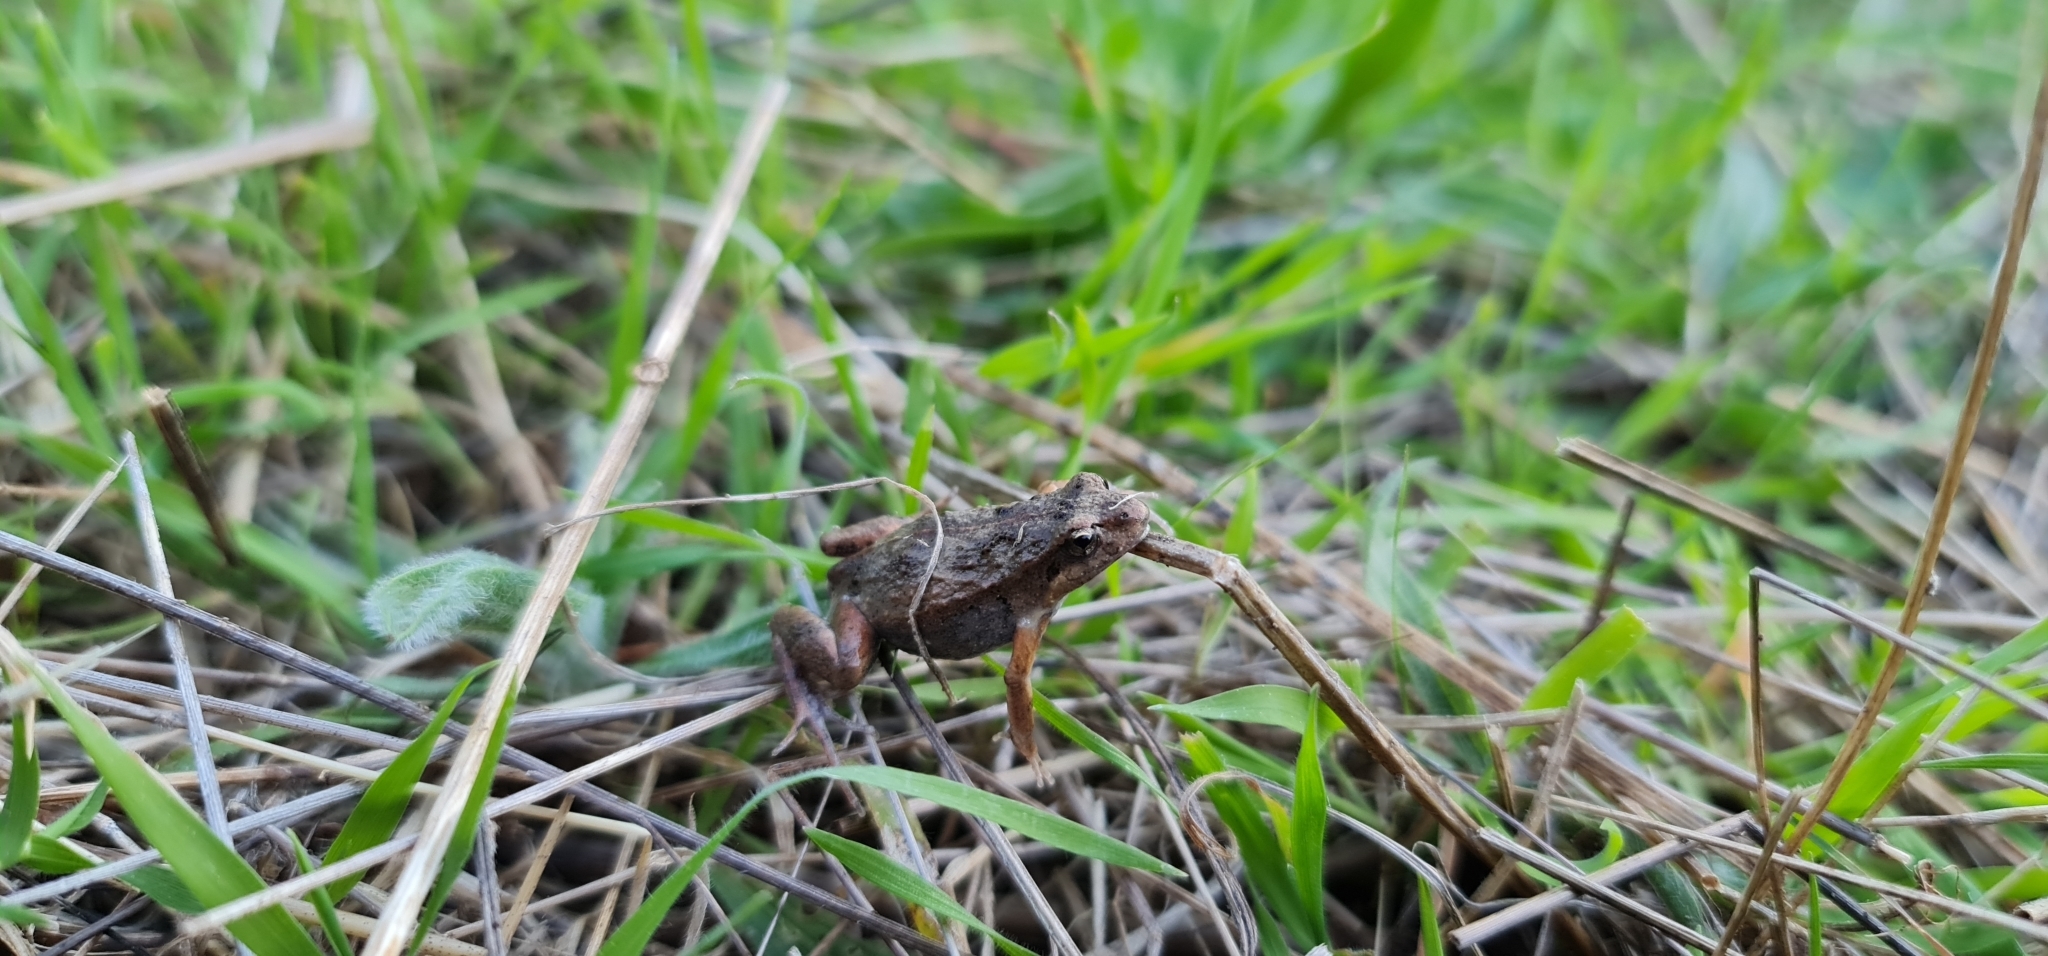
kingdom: Animalia
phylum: Chordata
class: Amphibia
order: Anura
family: Myobatrachidae
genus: Crinia
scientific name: Crinia signifera
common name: Brown froglet
